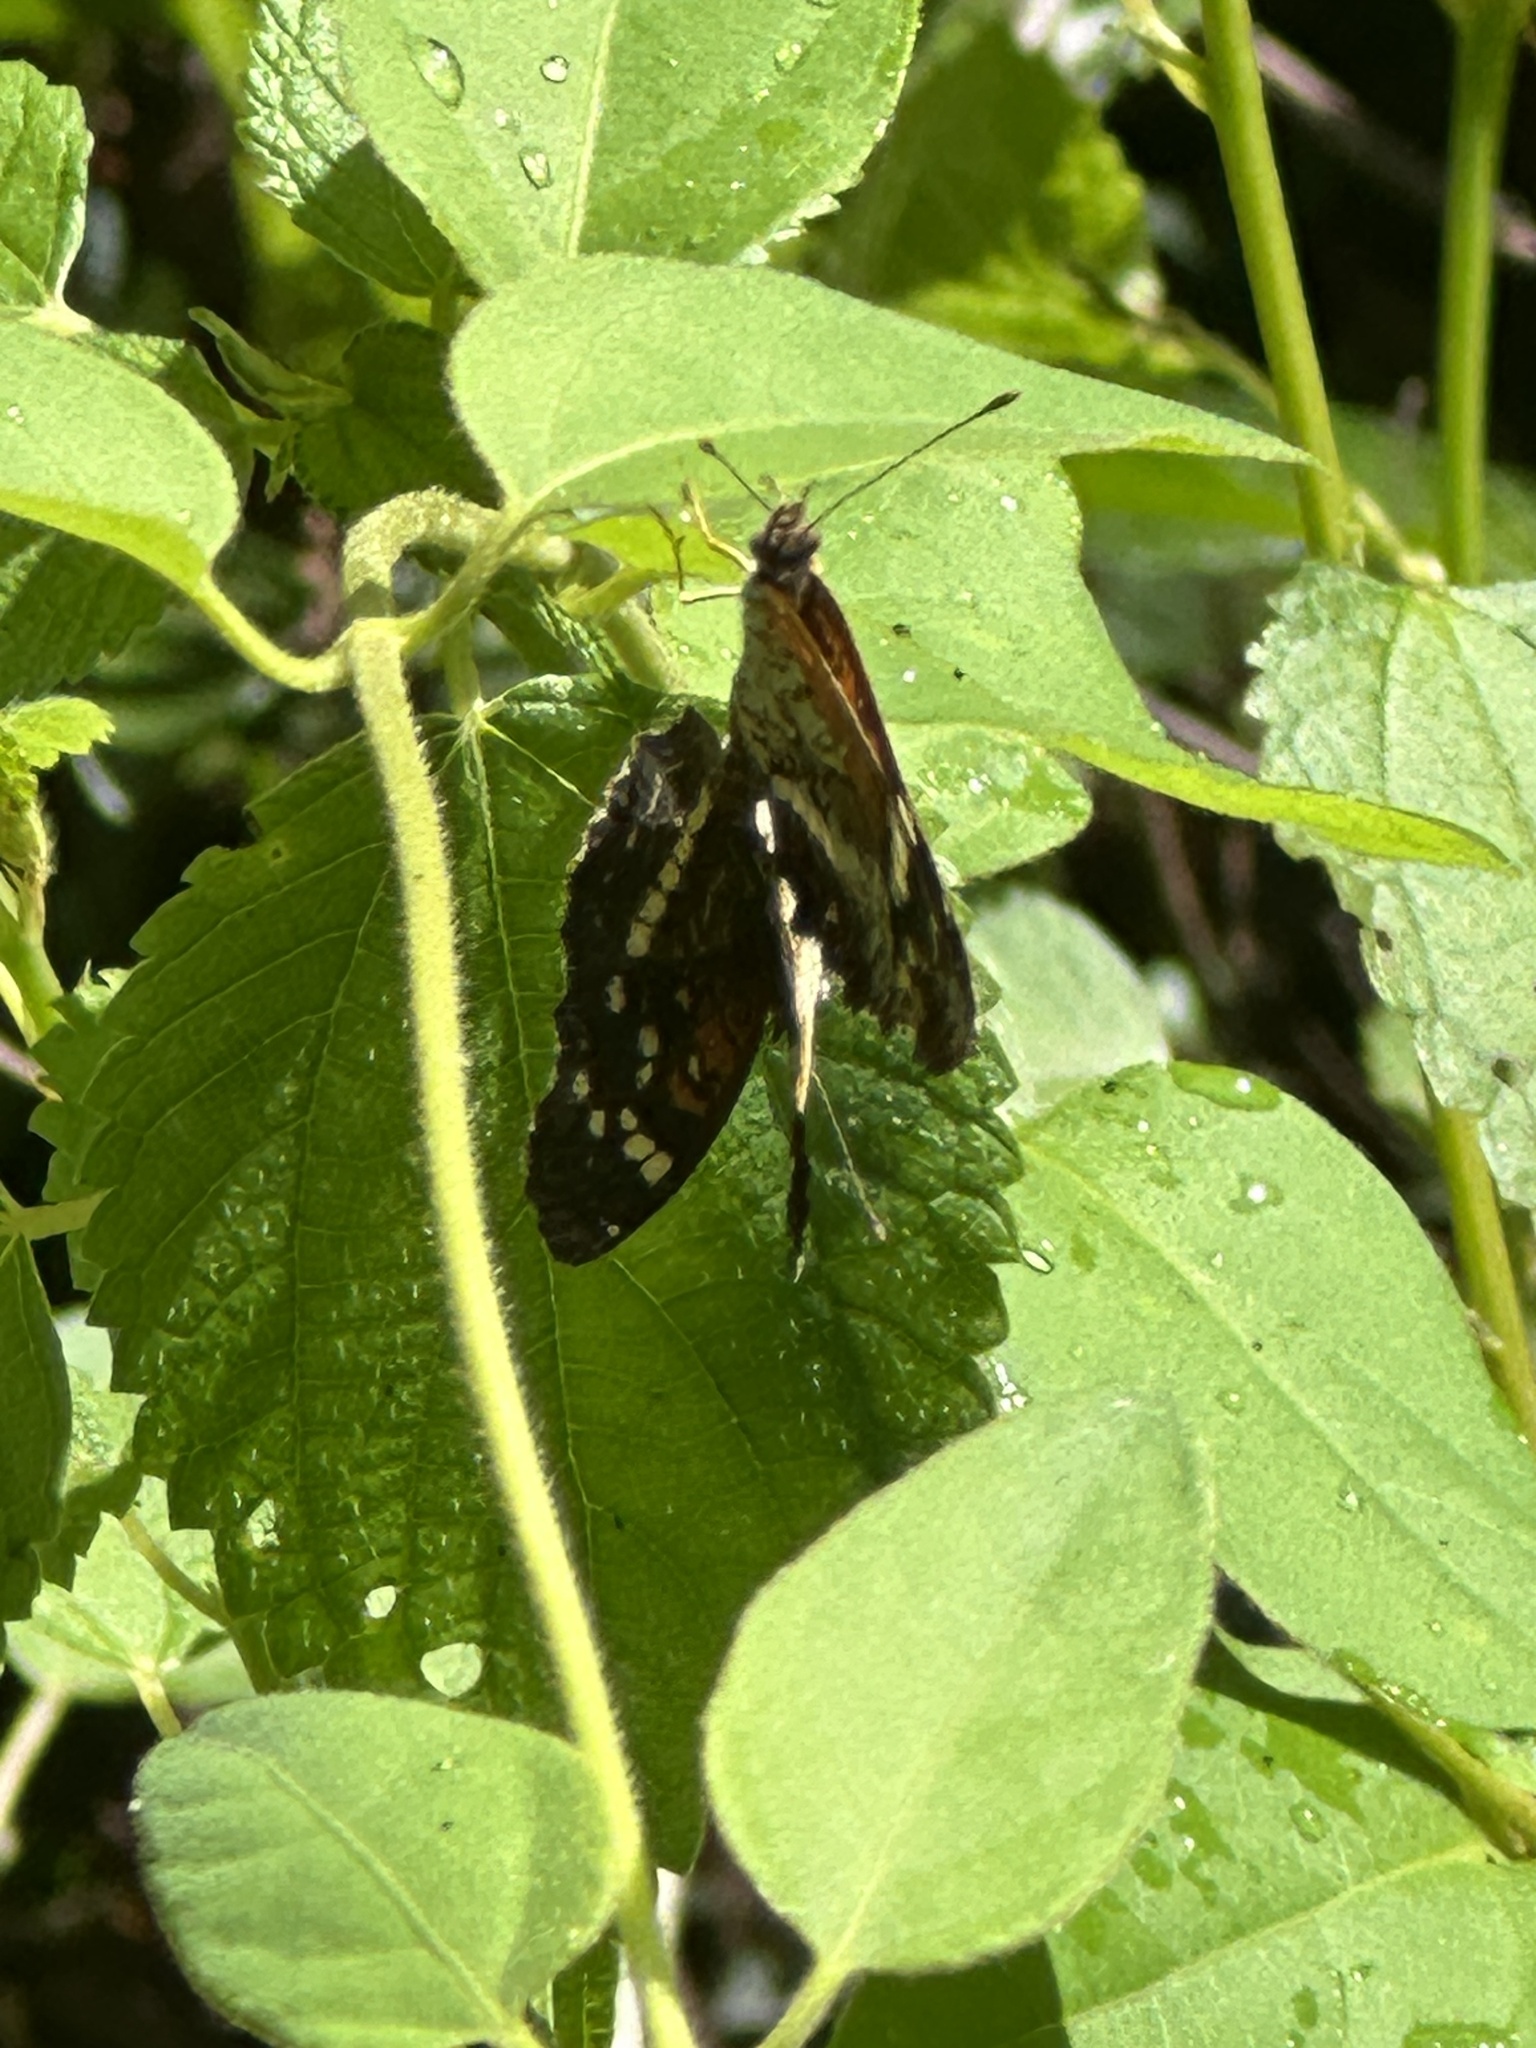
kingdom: Animalia
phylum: Arthropoda
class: Insecta
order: Lepidoptera
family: Nymphalidae
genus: Anthanassa
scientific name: Anthanassa taxana
